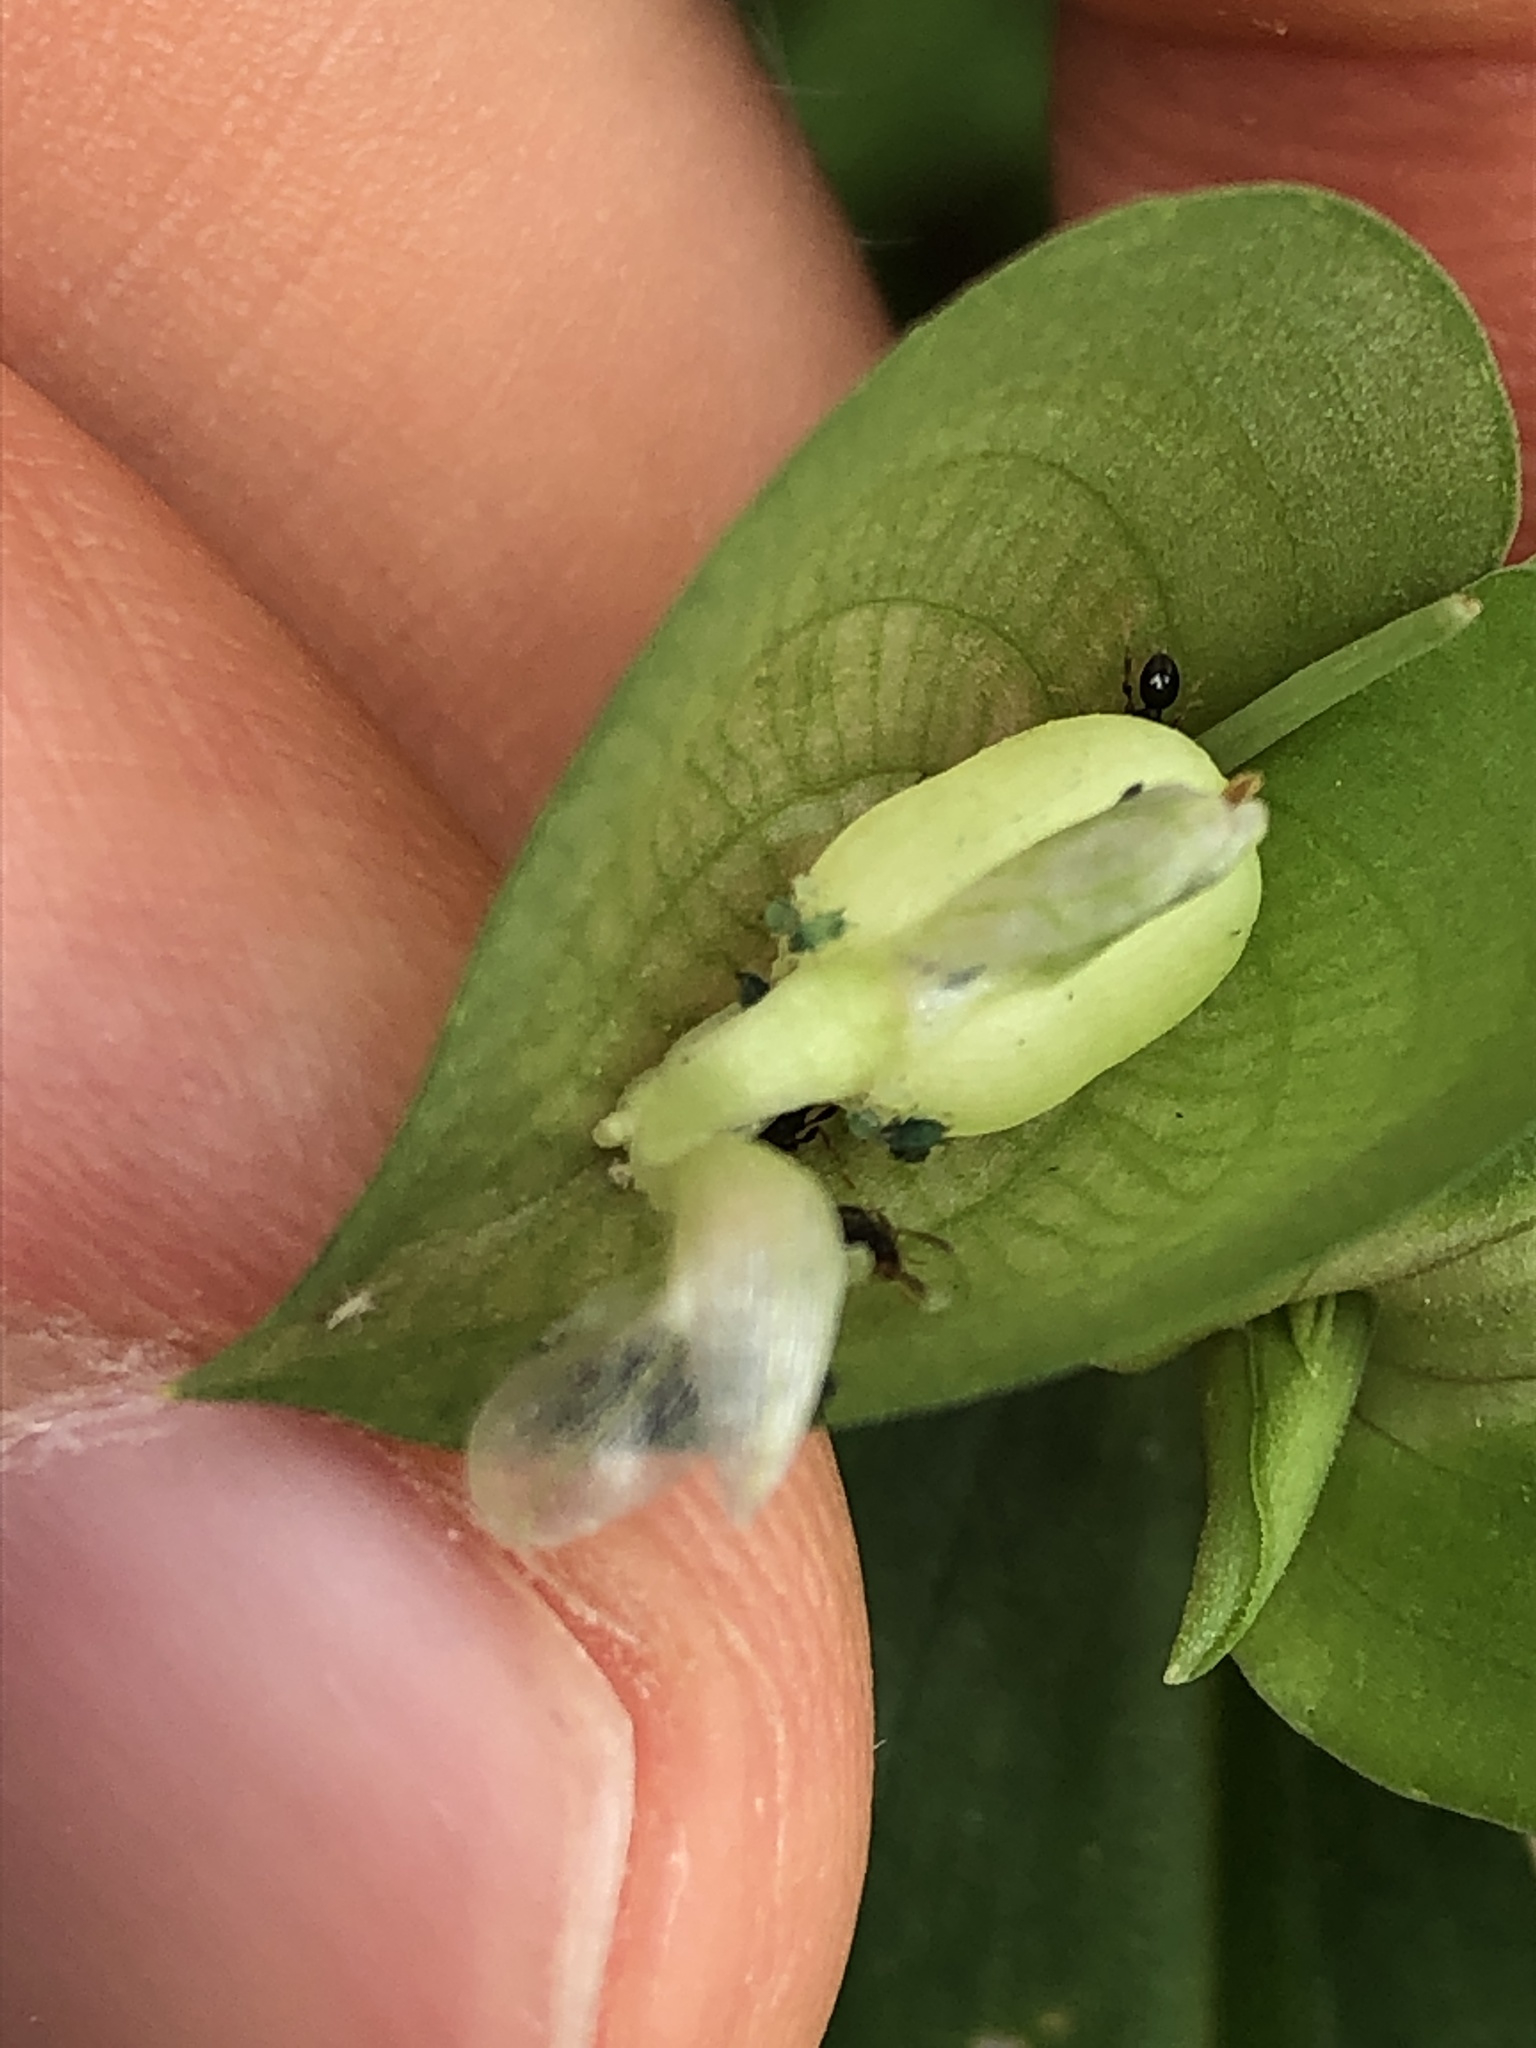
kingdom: Plantae
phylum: Tracheophyta
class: Liliopsida
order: Commelinales
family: Commelinaceae
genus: Commelina
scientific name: Commelina communis
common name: Asiatic dayflower
